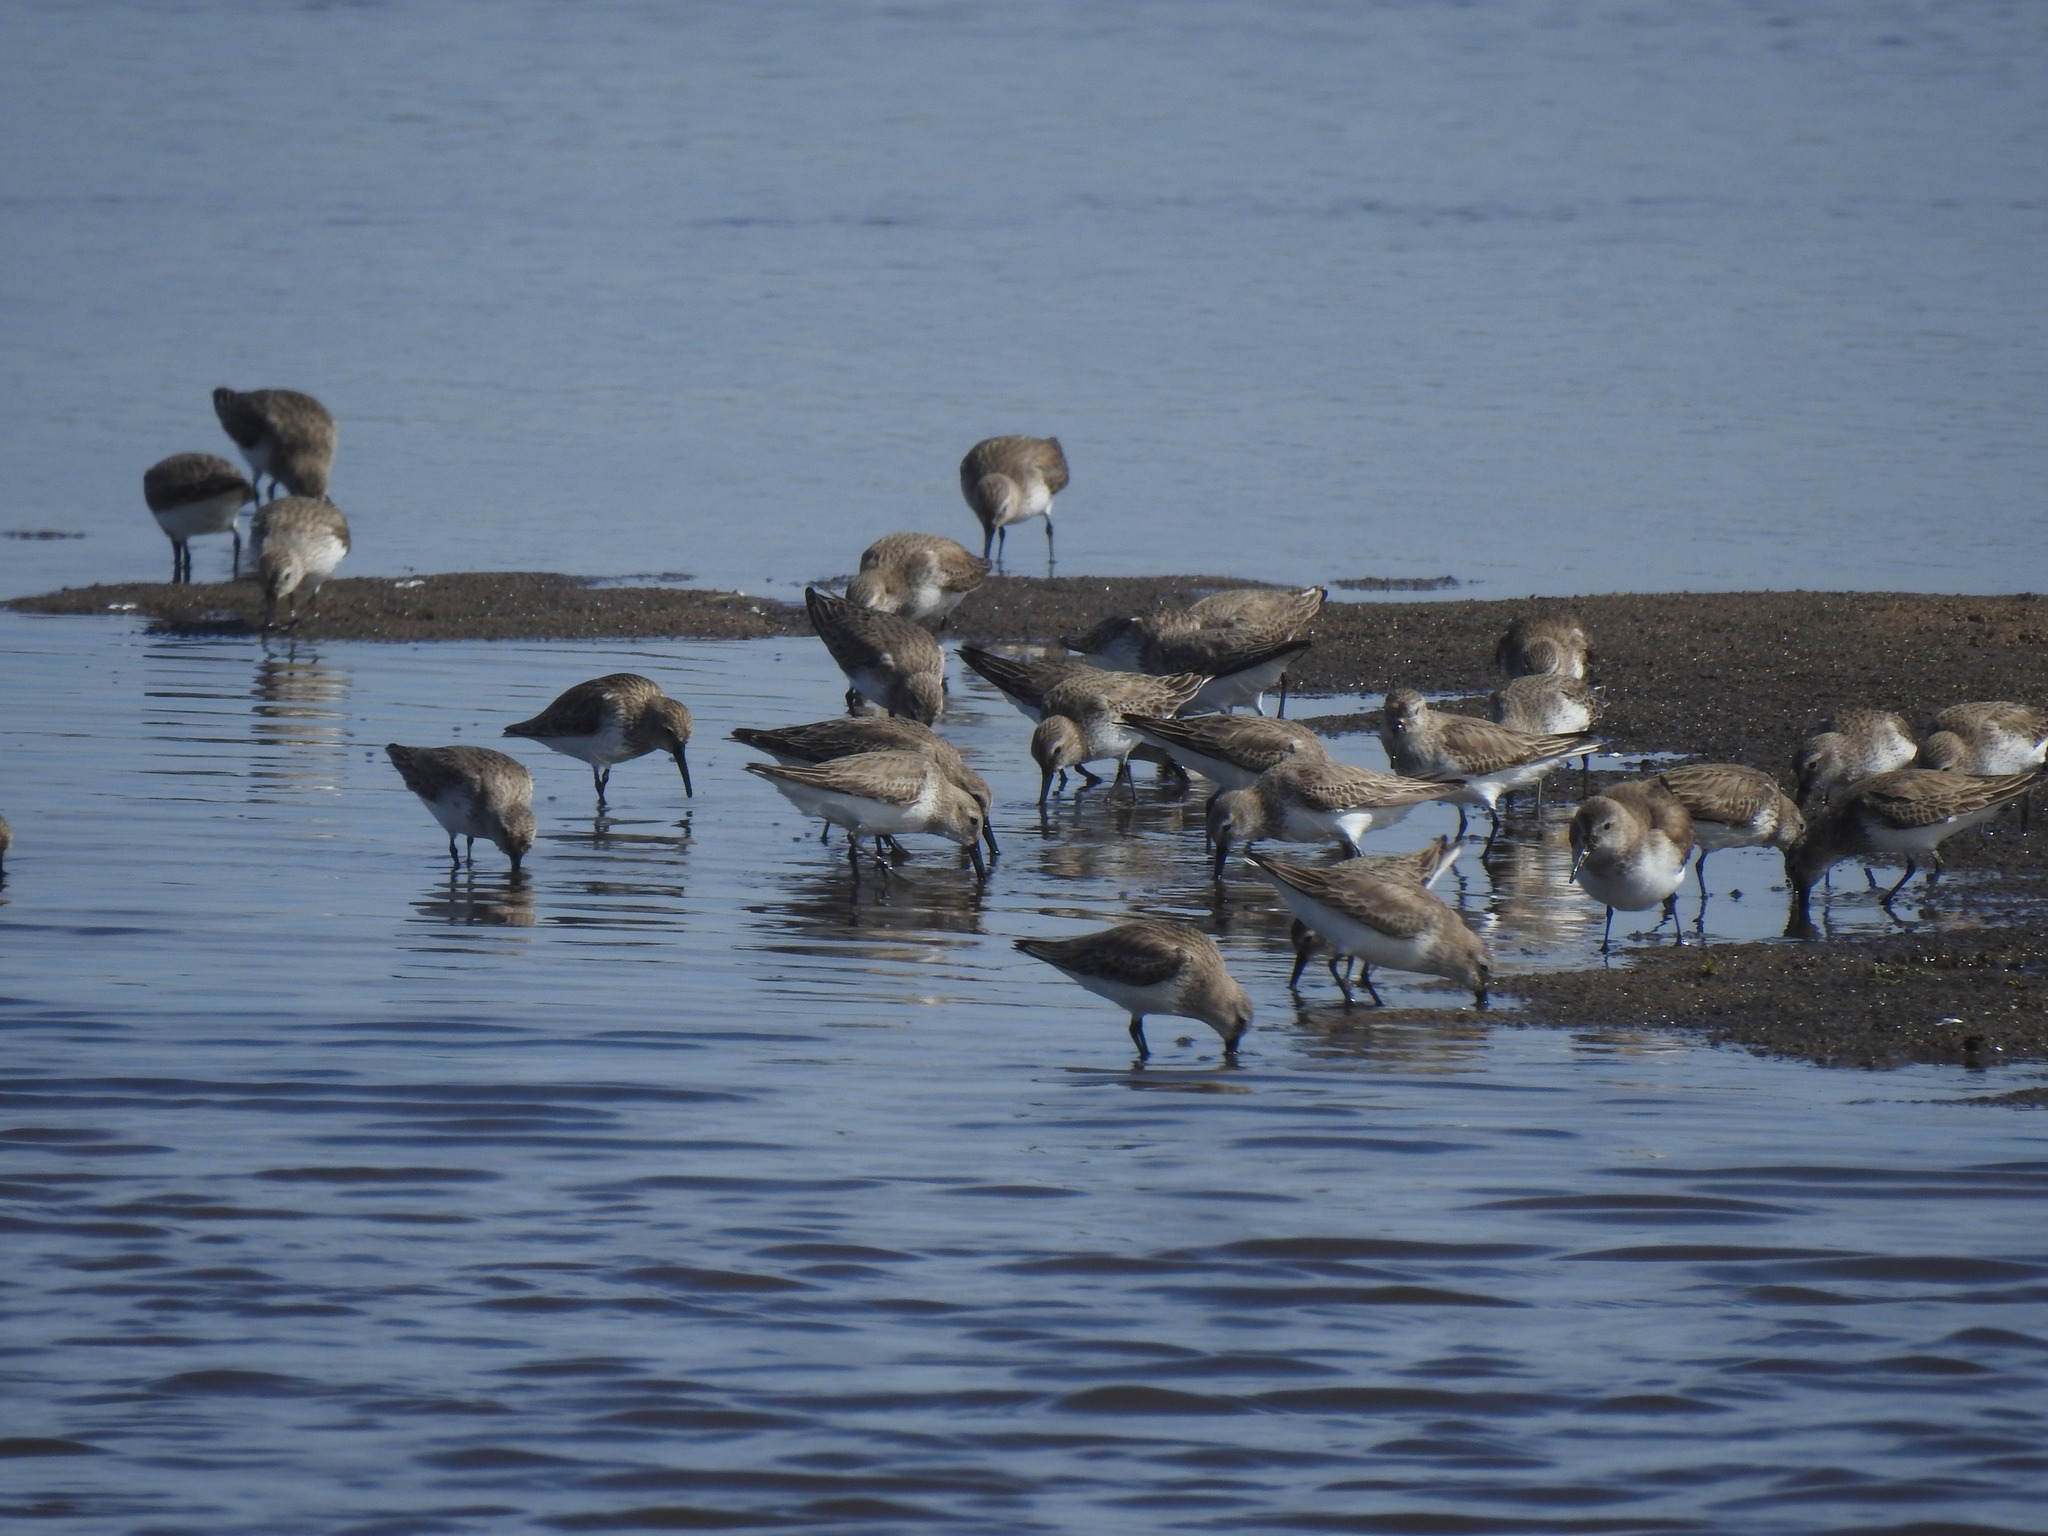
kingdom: Animalia
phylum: Chordata
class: Aves
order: Charadriiformes
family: Scolopacidae
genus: Calidris
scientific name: Calidris alpina
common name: Dunlin
